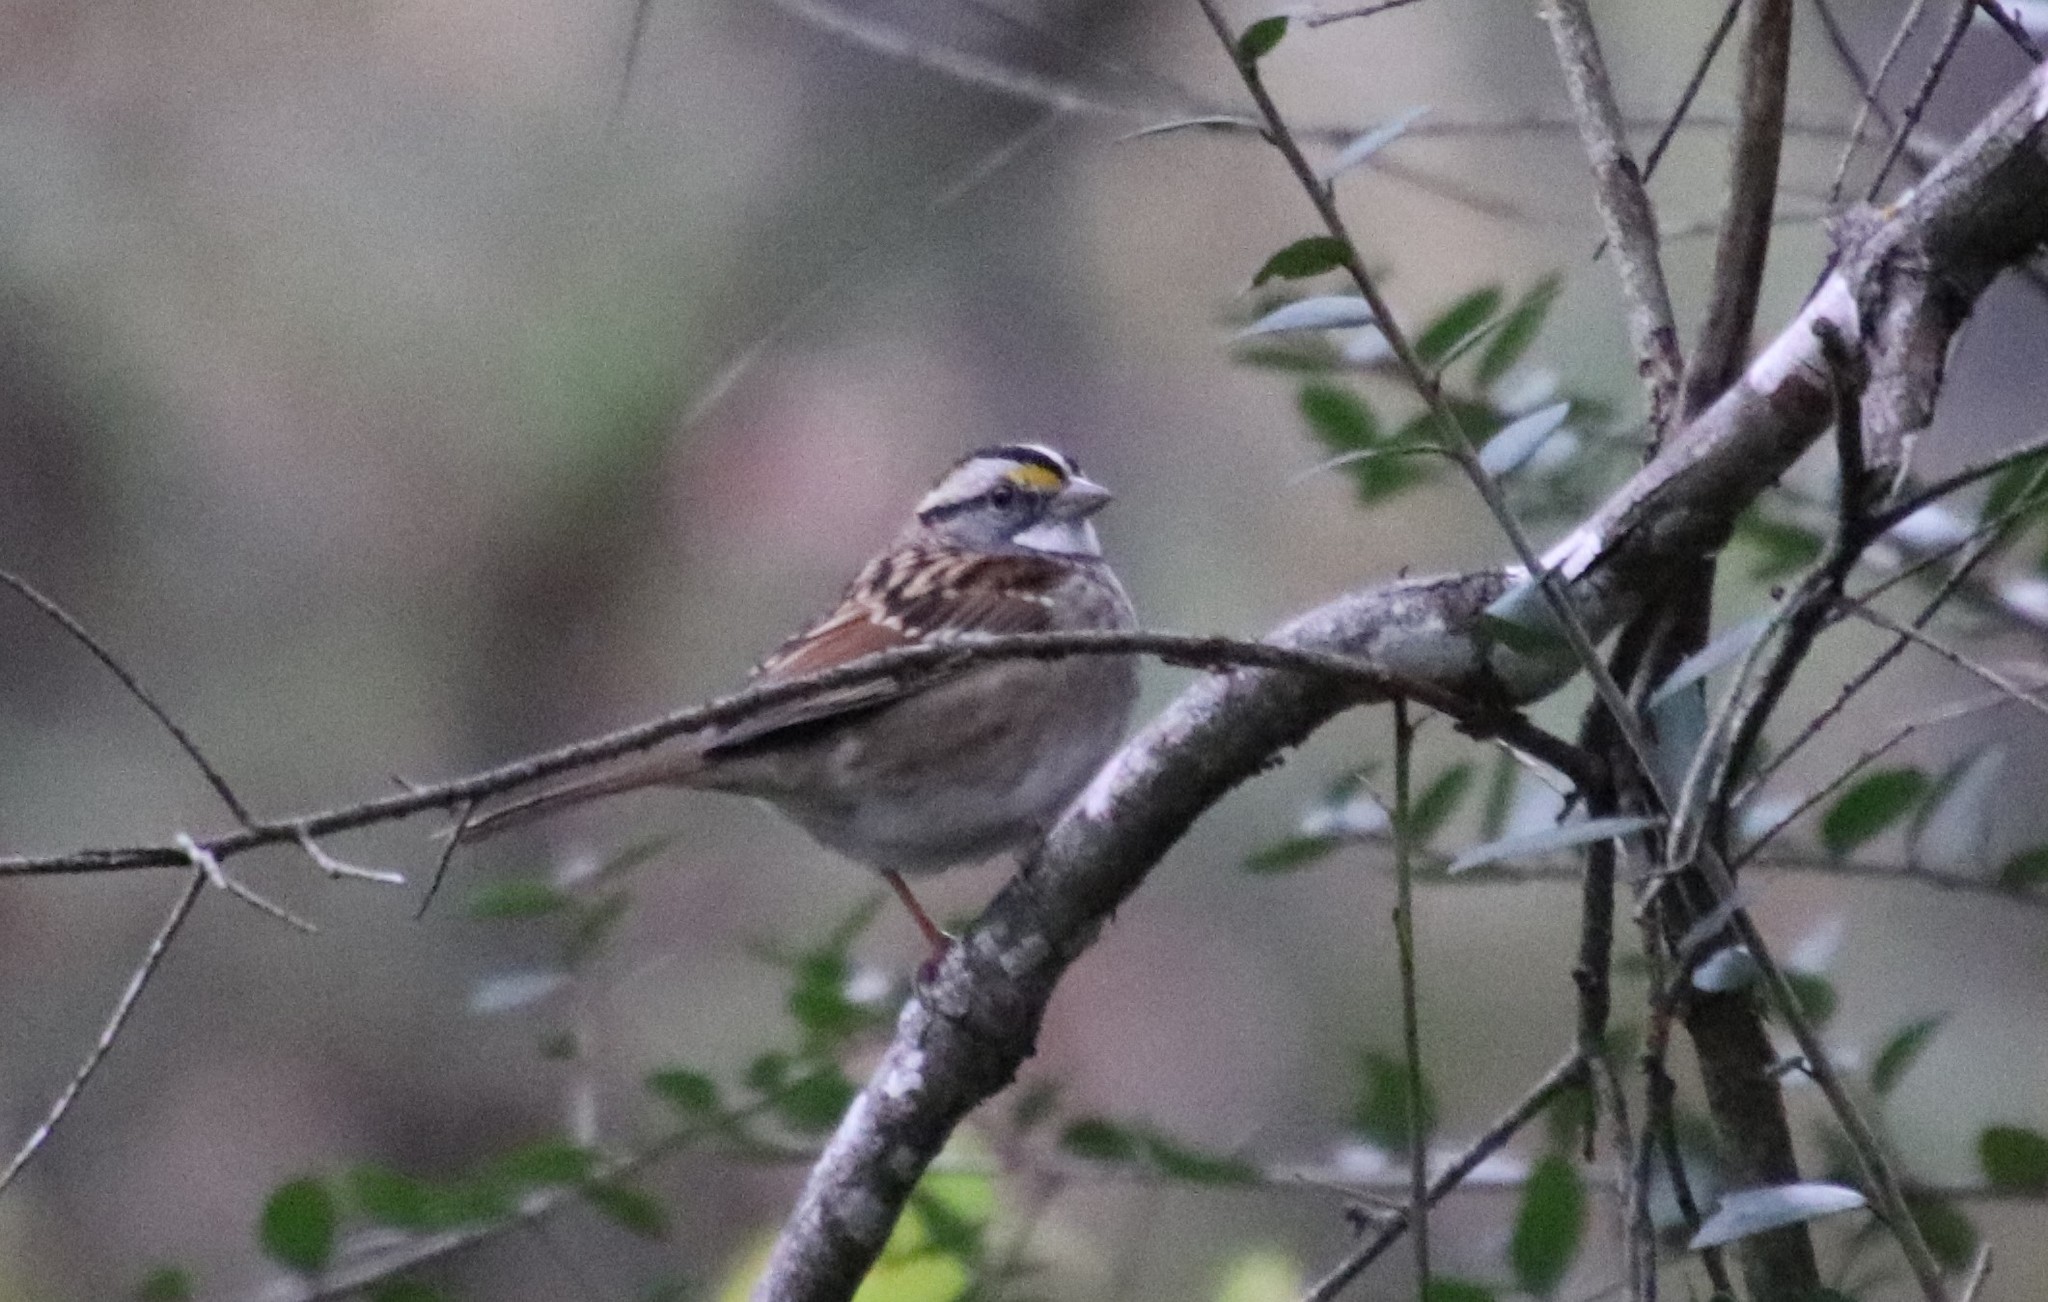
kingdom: Animalia
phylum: Chordata
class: Aves
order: Passeriformes
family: Passerellidae
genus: Zonotrichia
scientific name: Zonotrichia albicollis
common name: White-throated sparrow
